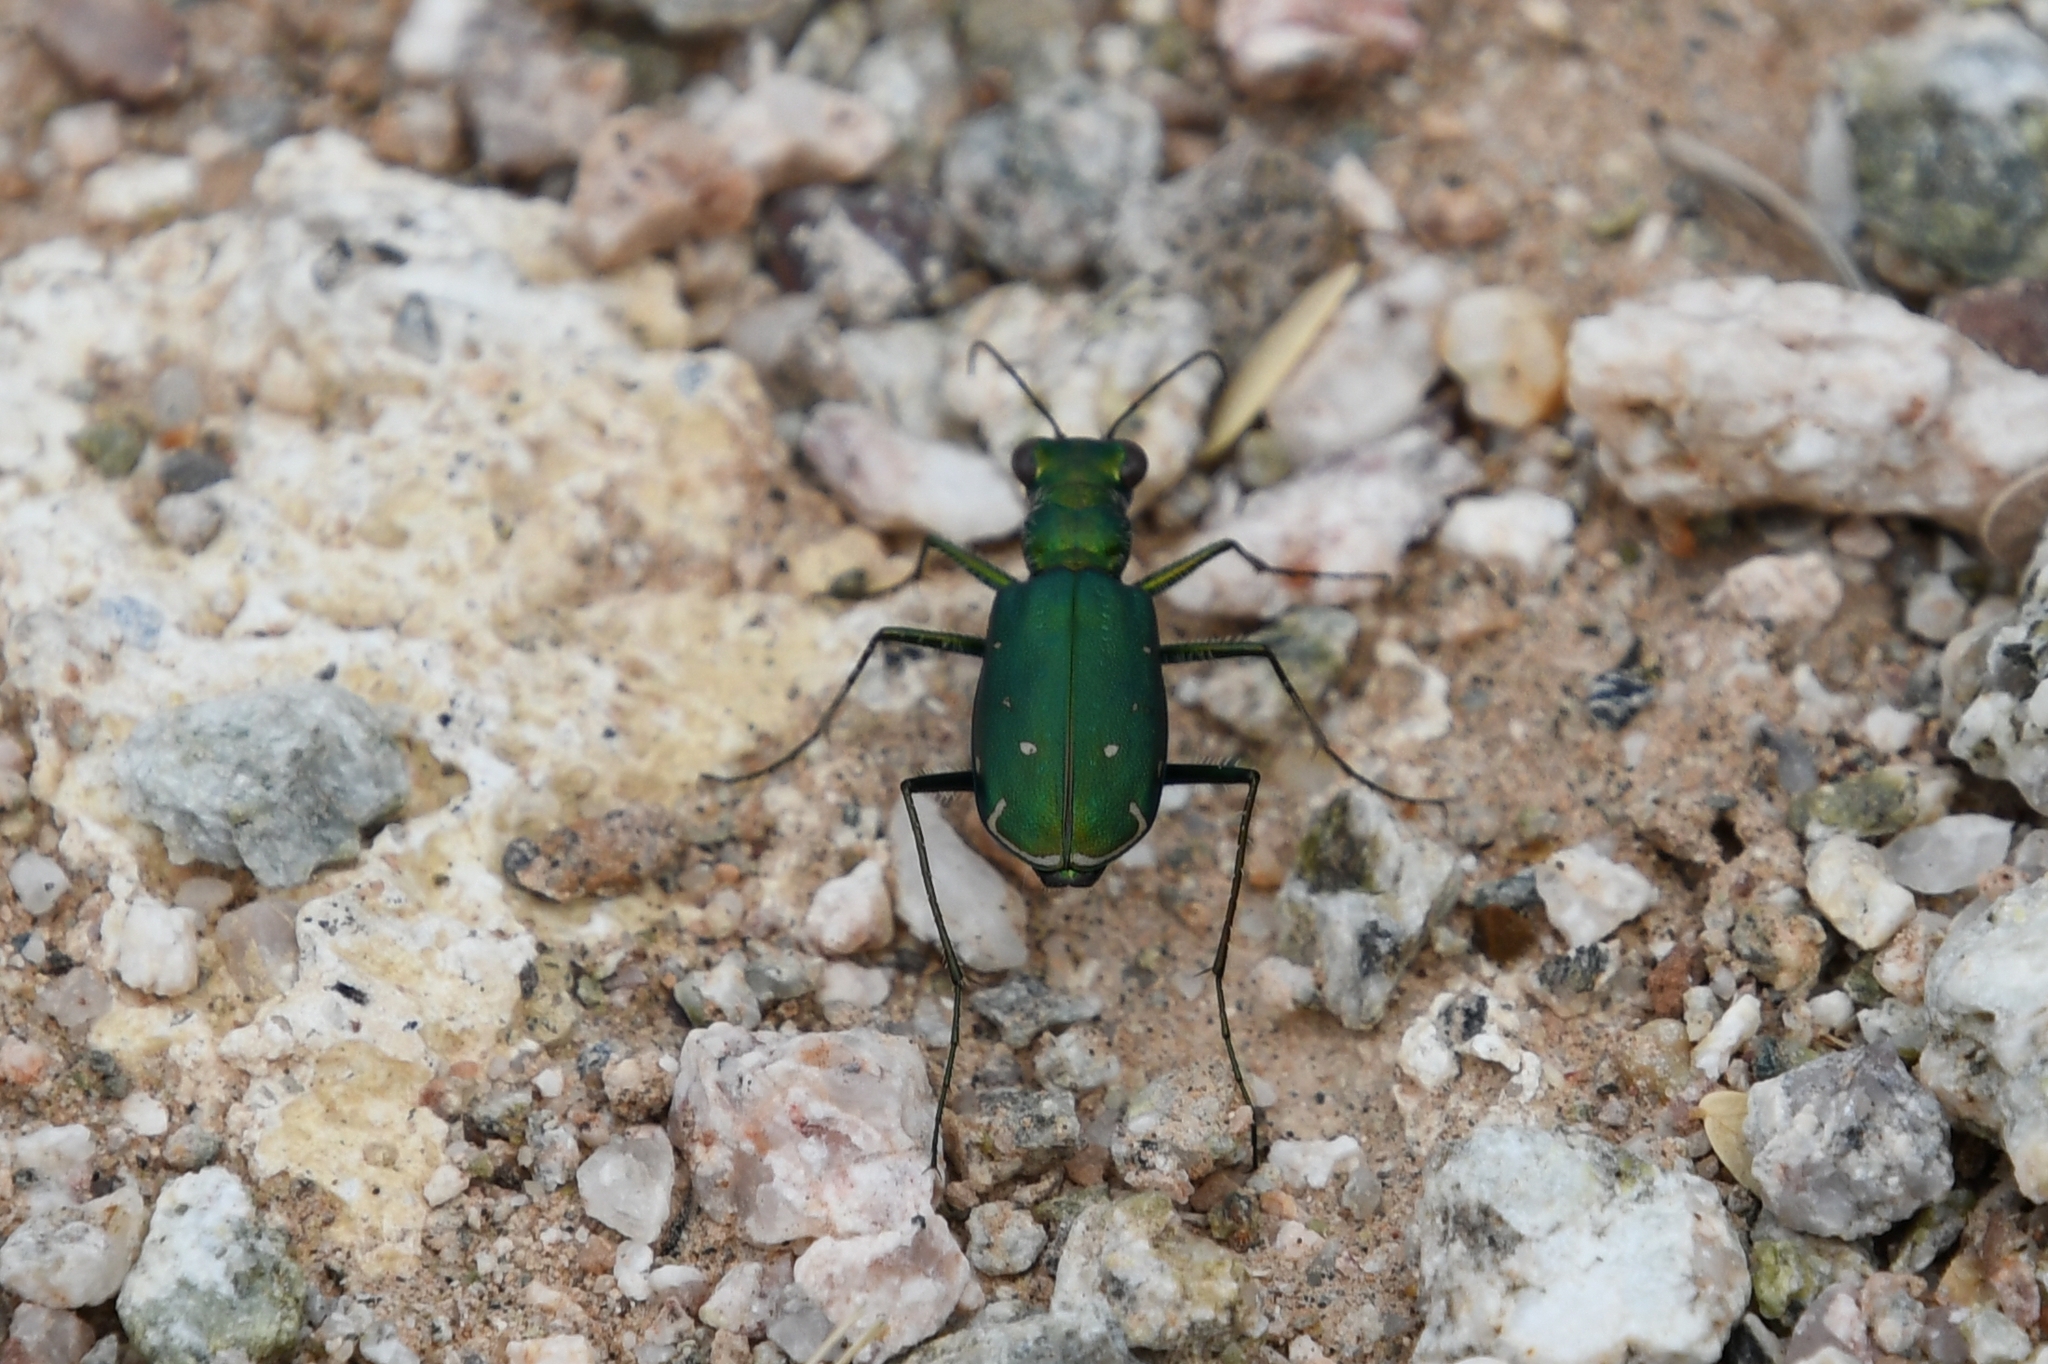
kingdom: Animalia
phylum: Arthropoda
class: Insecta
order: Coleoptera
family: Carabidae
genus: Cicindela
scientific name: Cicindela punctulata
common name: Punctured tiger beetle
